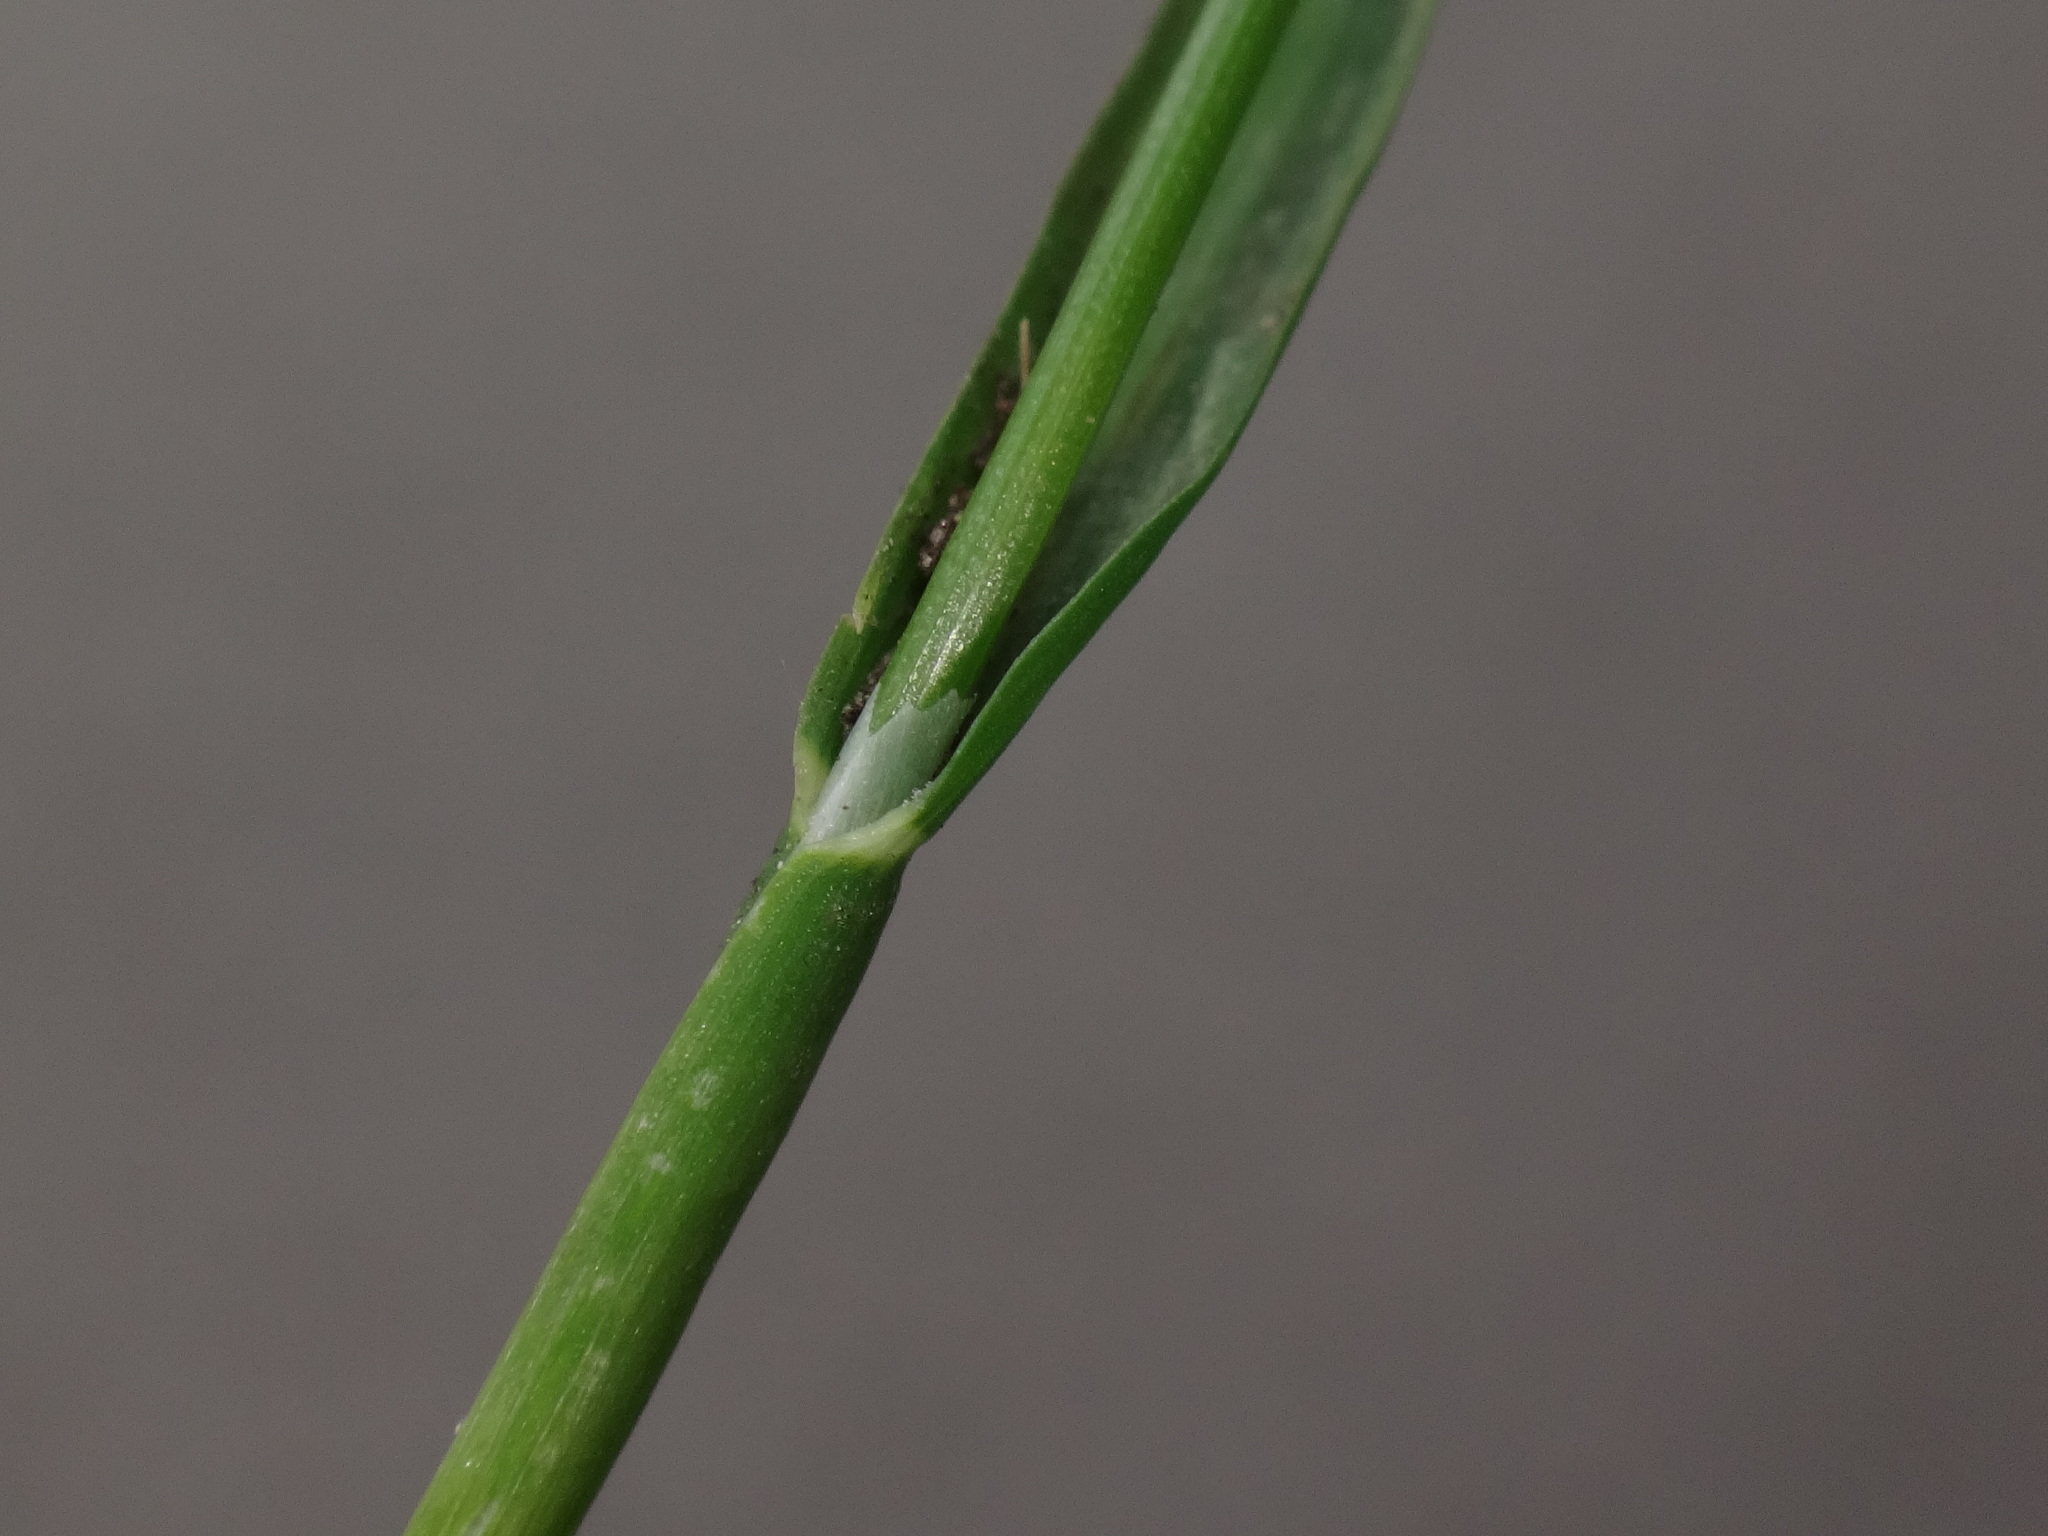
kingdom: Plantae
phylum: Tracheophyta
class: Liliopsida
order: Poales
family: Poaceae
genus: Poa
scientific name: Poa annua
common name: Annual bluegrass
